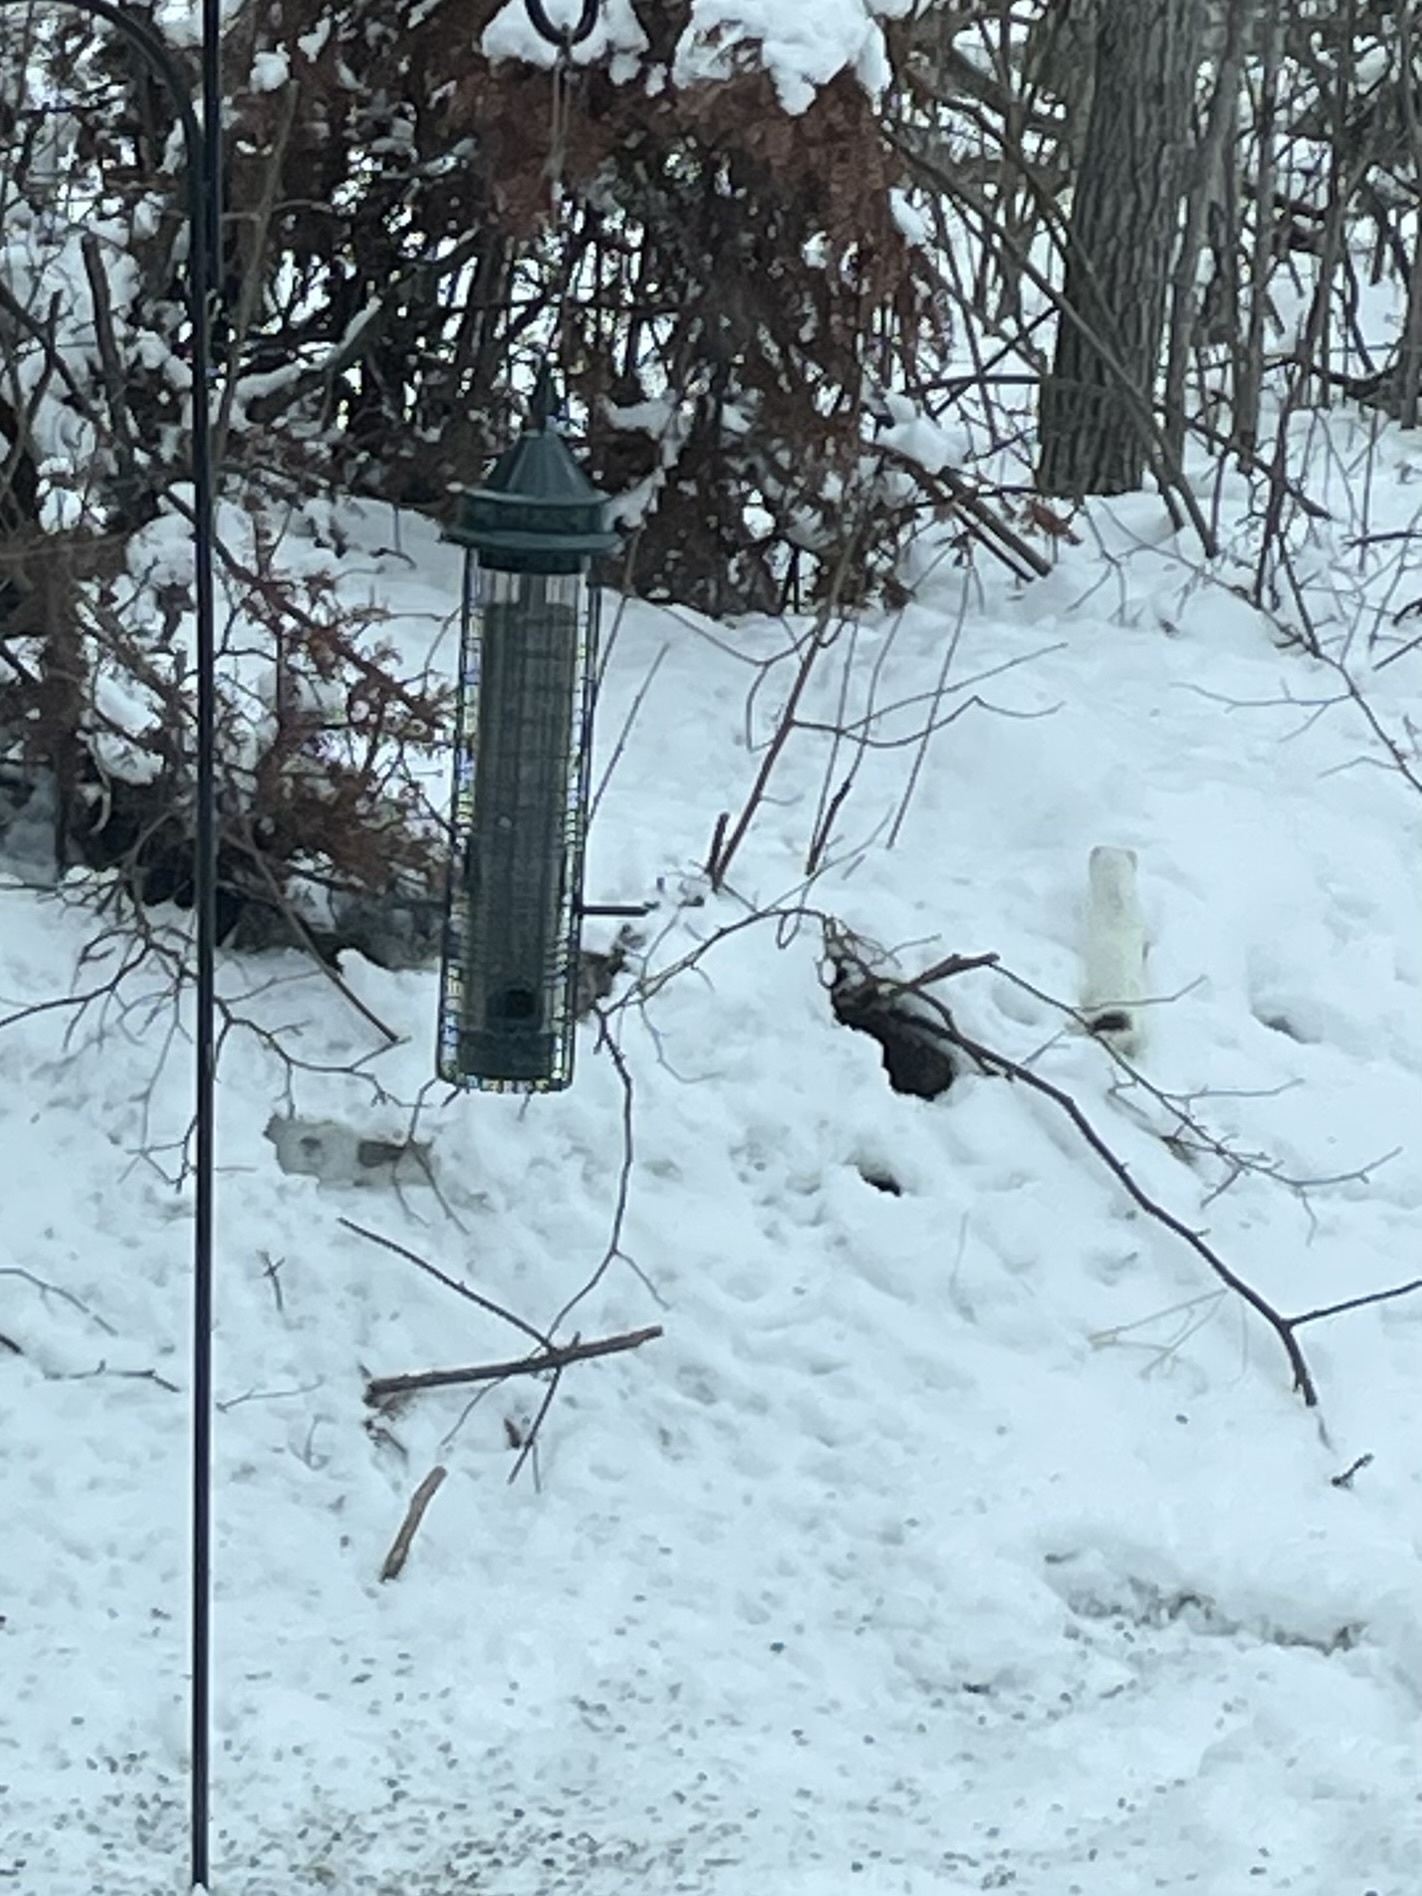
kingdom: Animalia
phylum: Chordata
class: Mammalia
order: Carnivora
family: Mustelidae
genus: Mustela
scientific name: Mustela erminea
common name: Stoat
